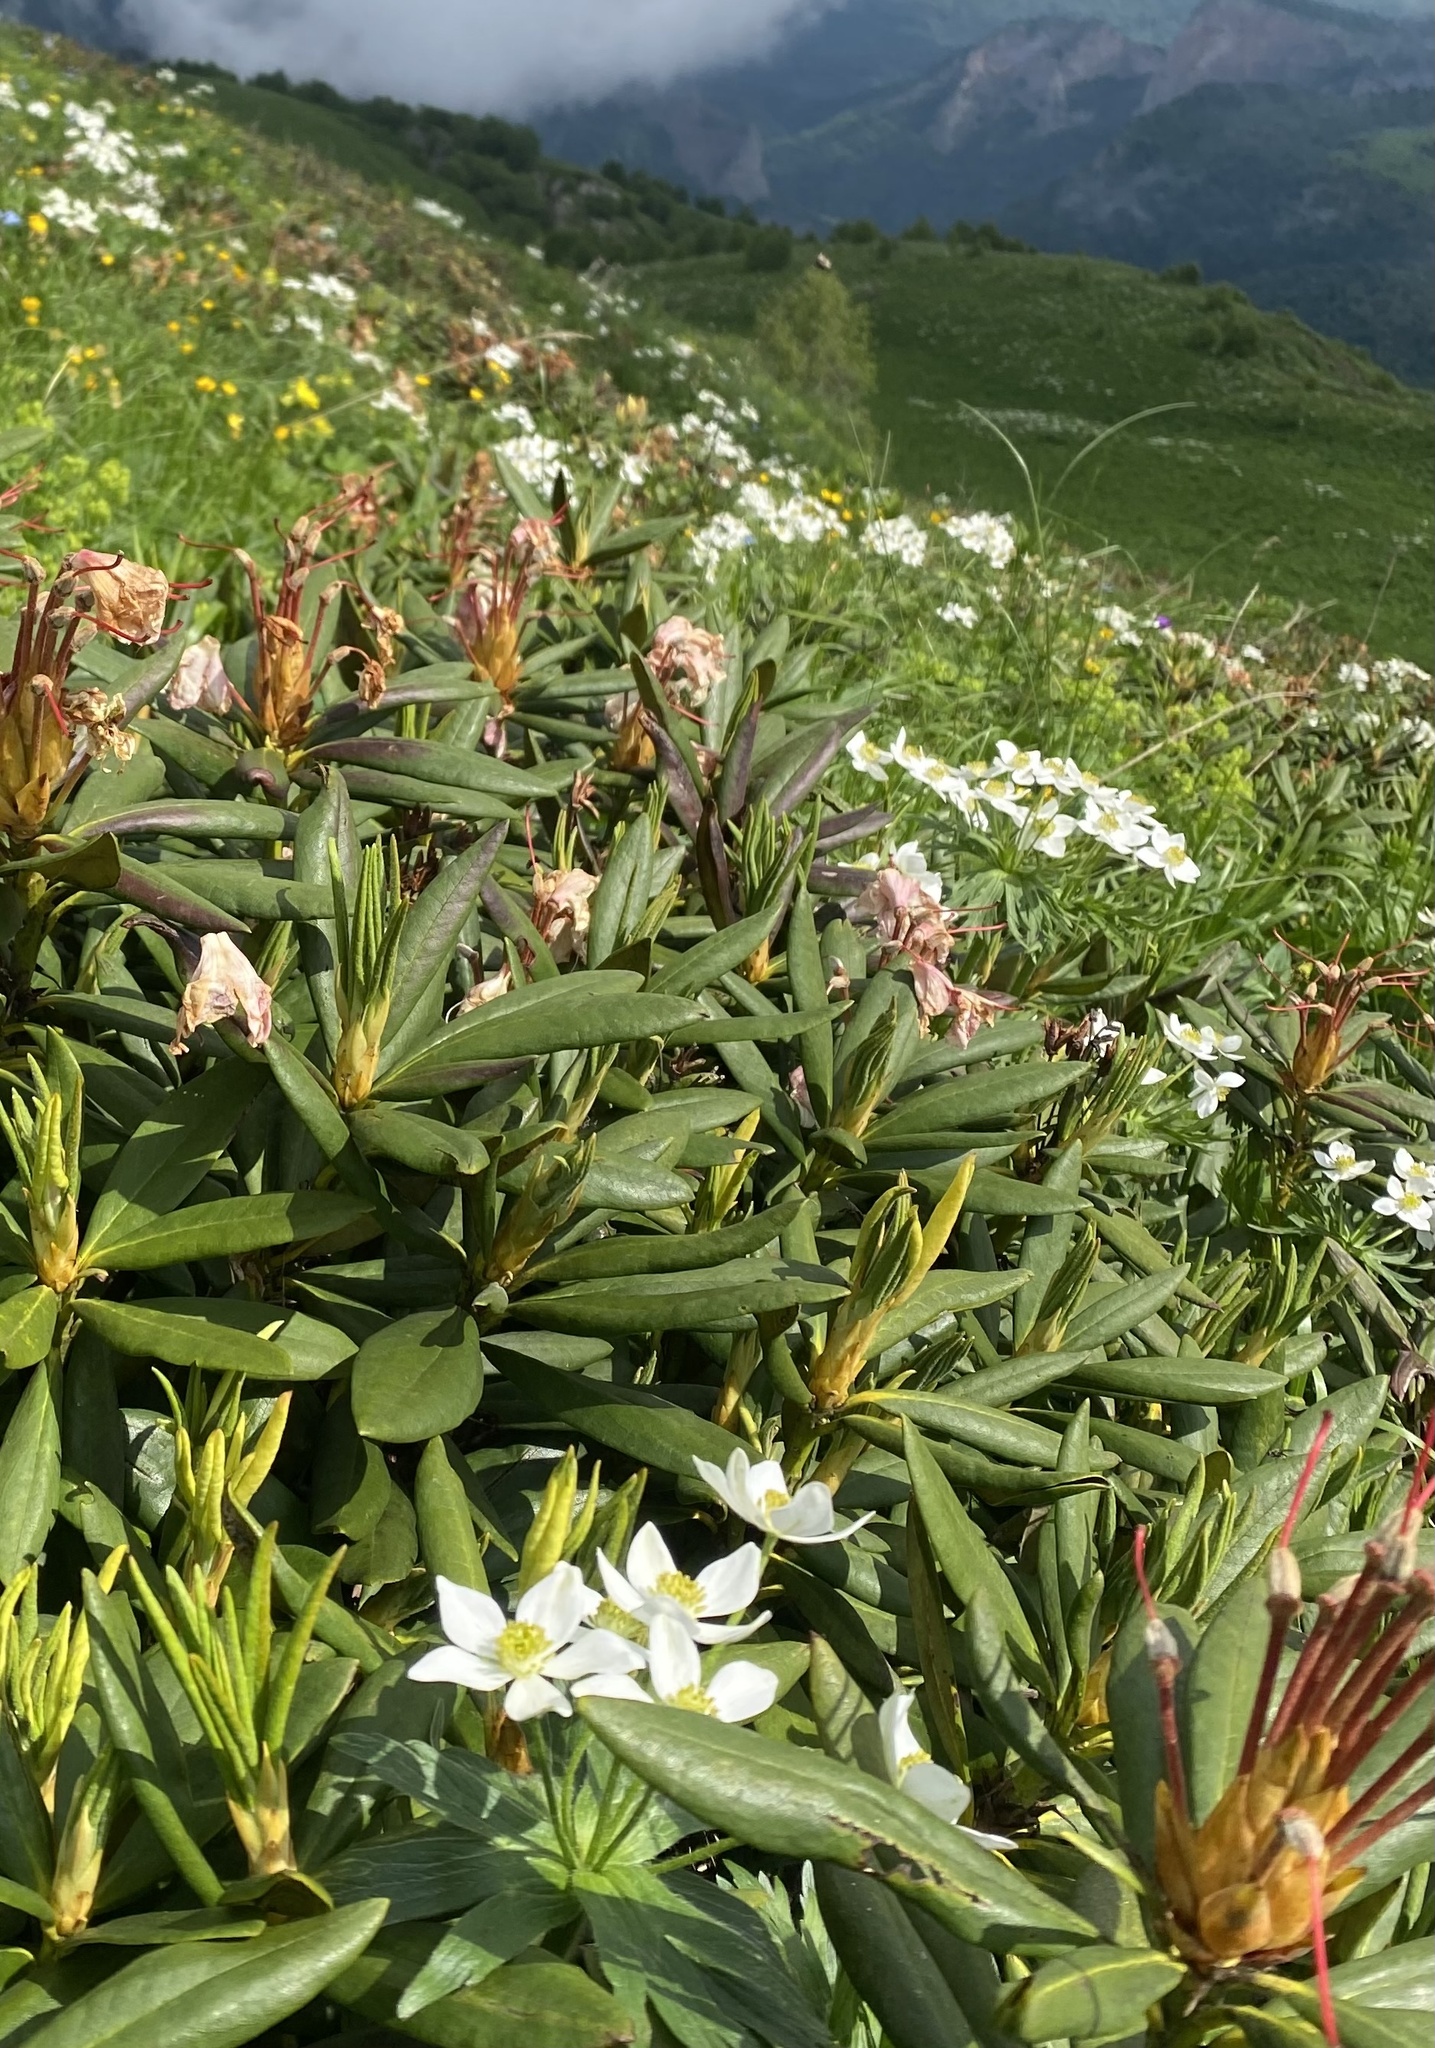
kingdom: Plantae
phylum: Tracheophyta
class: Magnoliopsida
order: Ranunculales
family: Ranunculaceae
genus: Anemonastrum
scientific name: Anemonastrum narcissiflorum
